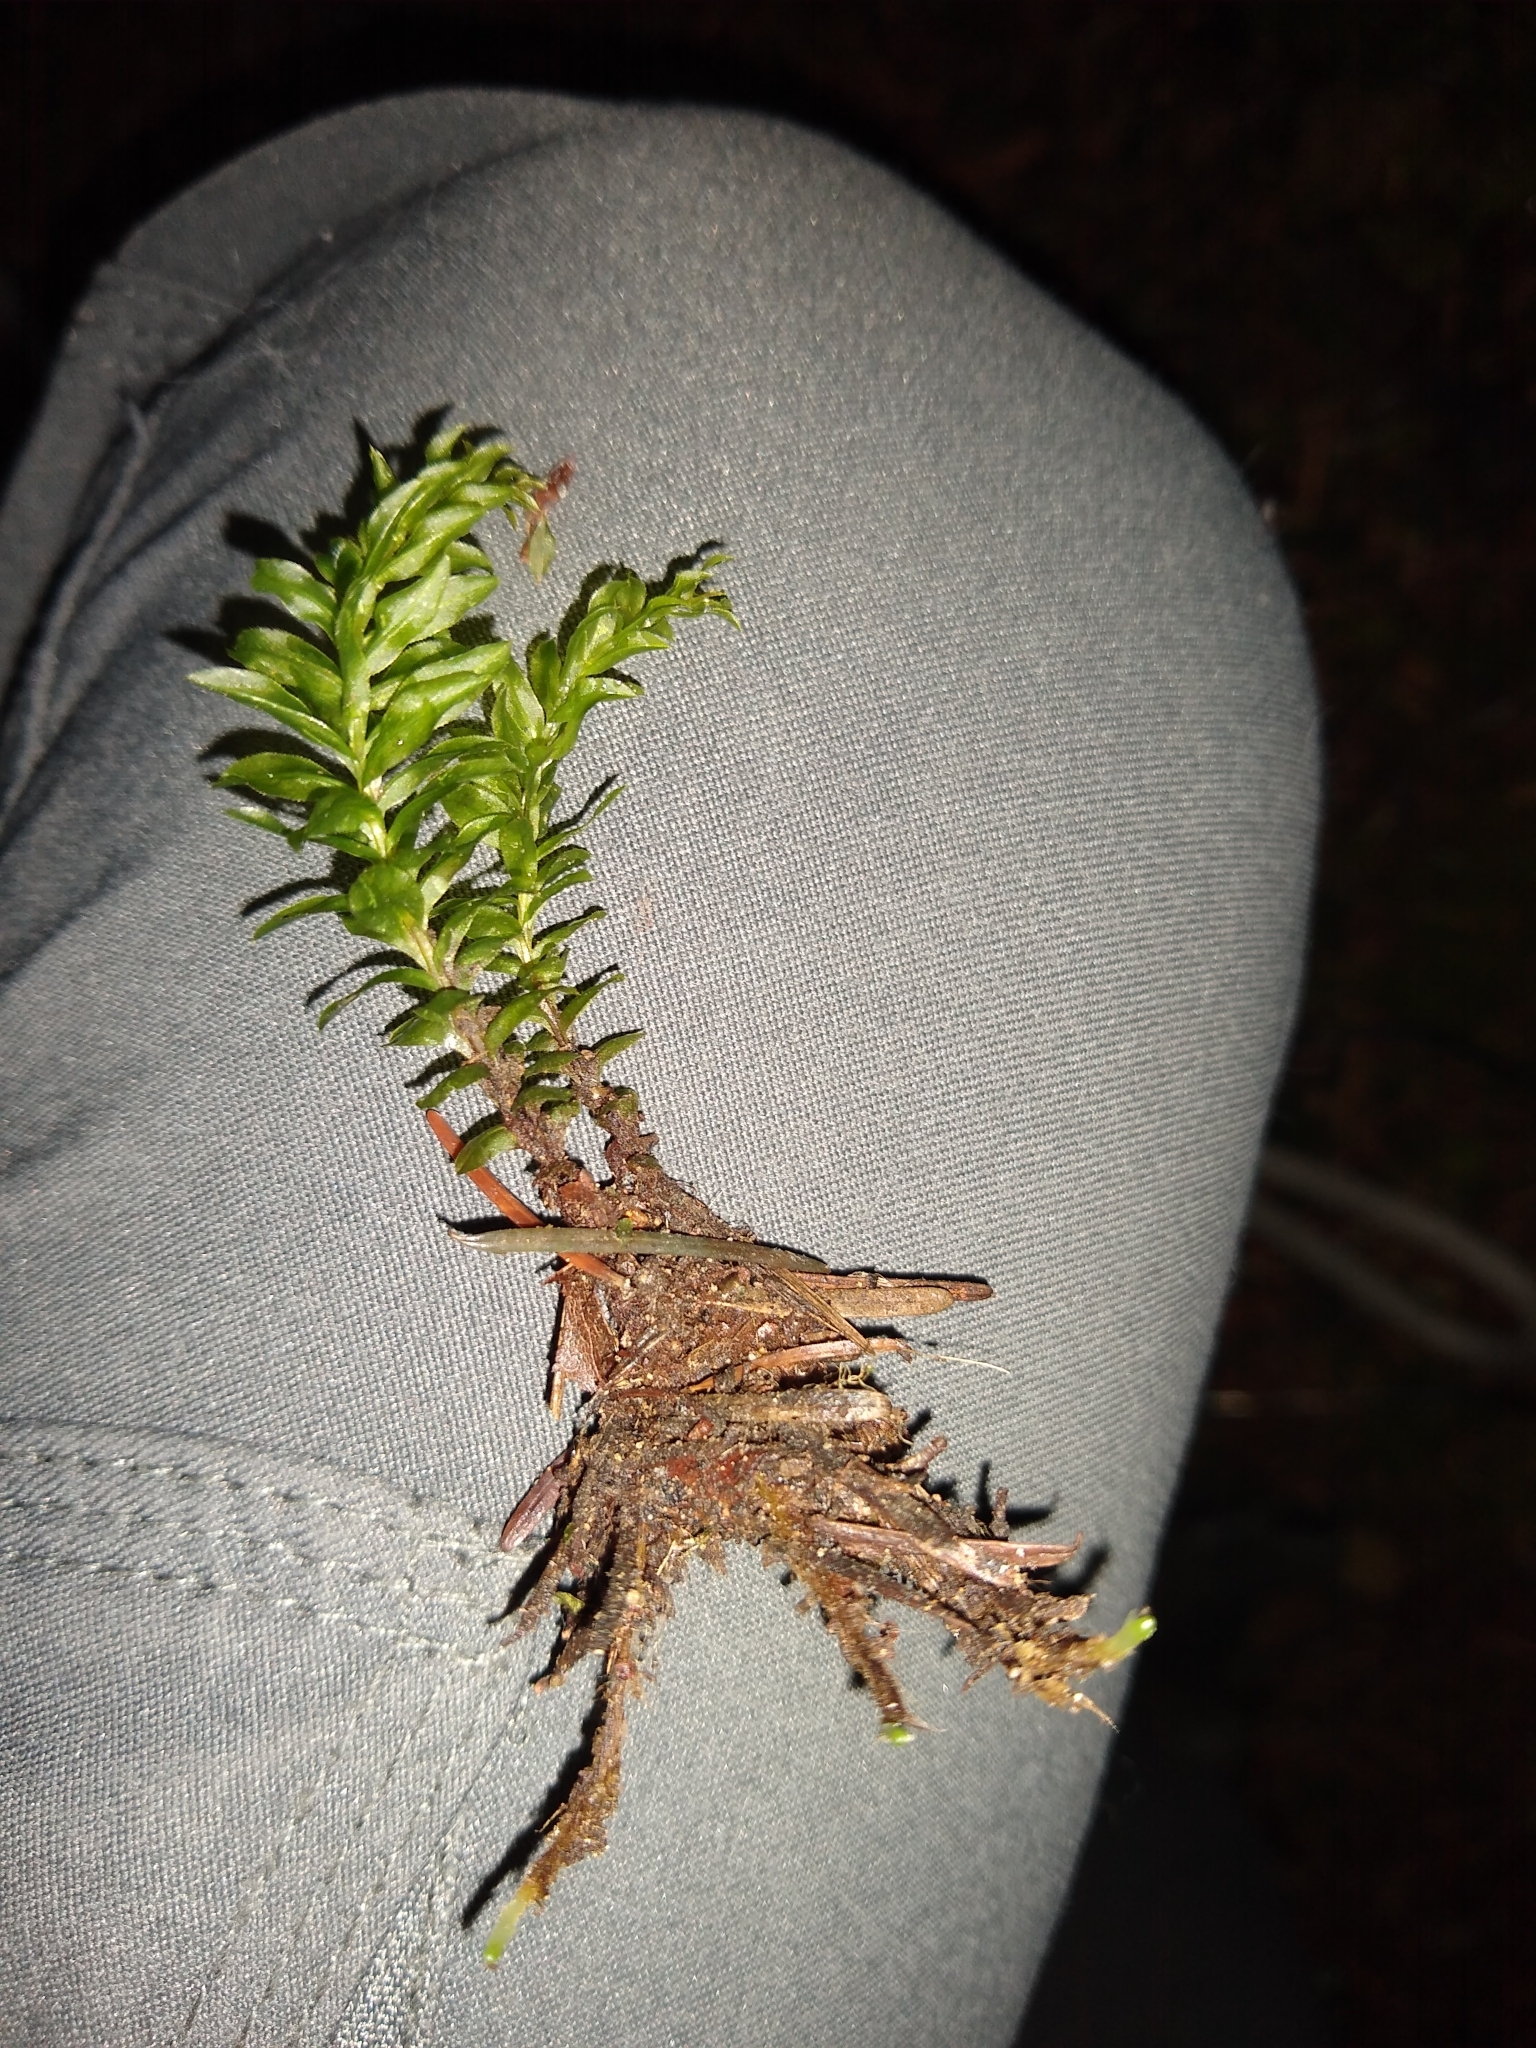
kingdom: Plantae
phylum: Bryophyta
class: Bryopsida
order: Bryales
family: Mniaceae
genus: Plagiomnium
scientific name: Plagiomnium insigne
